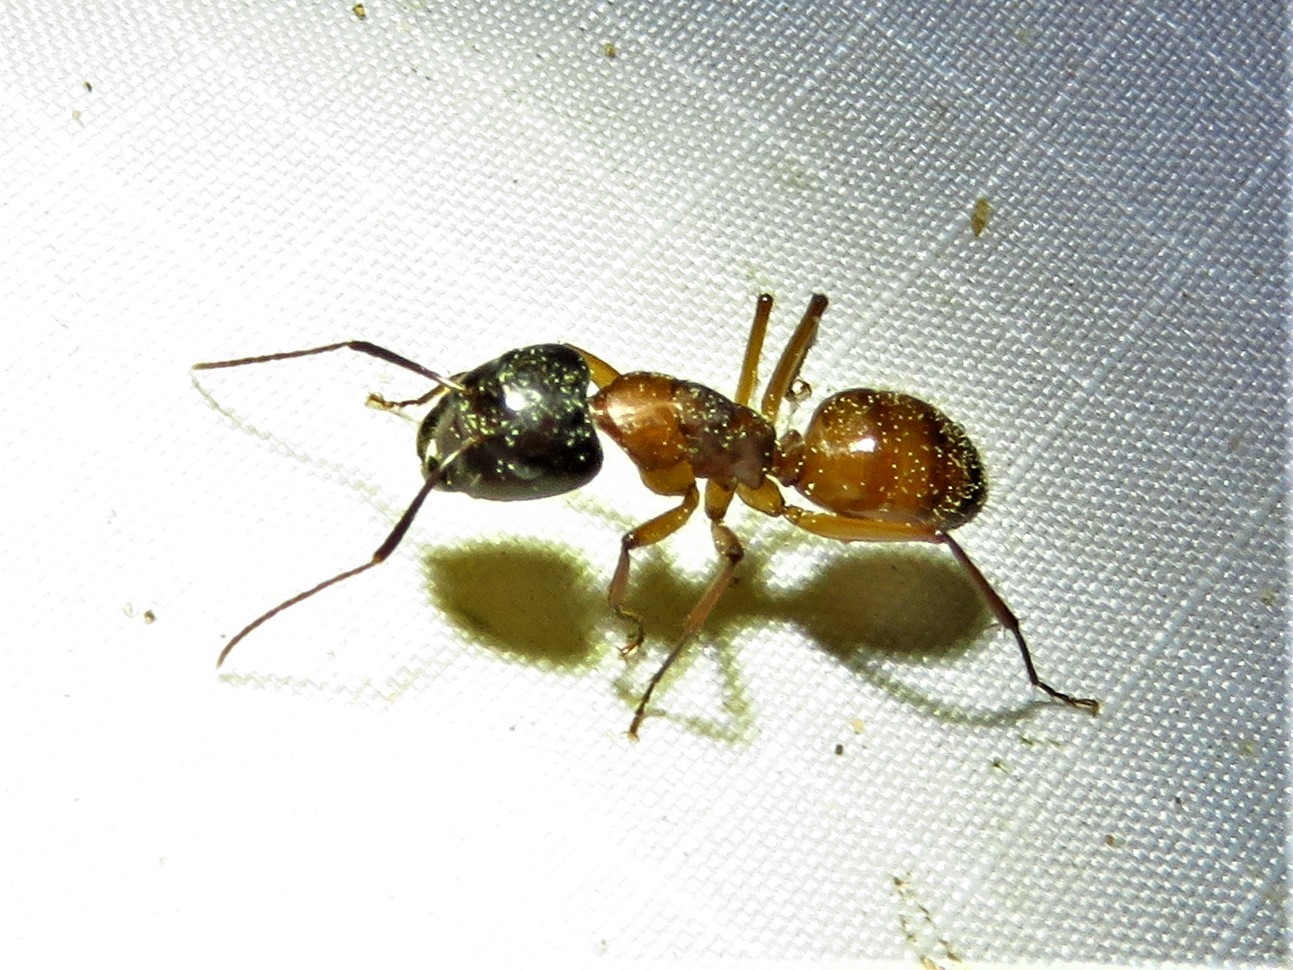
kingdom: Animalia
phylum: Arthropoda
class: Insecta
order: Hymenoptera
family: Formicidae
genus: Camponotus
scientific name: Camponotus americanus
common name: American carpenter ant
